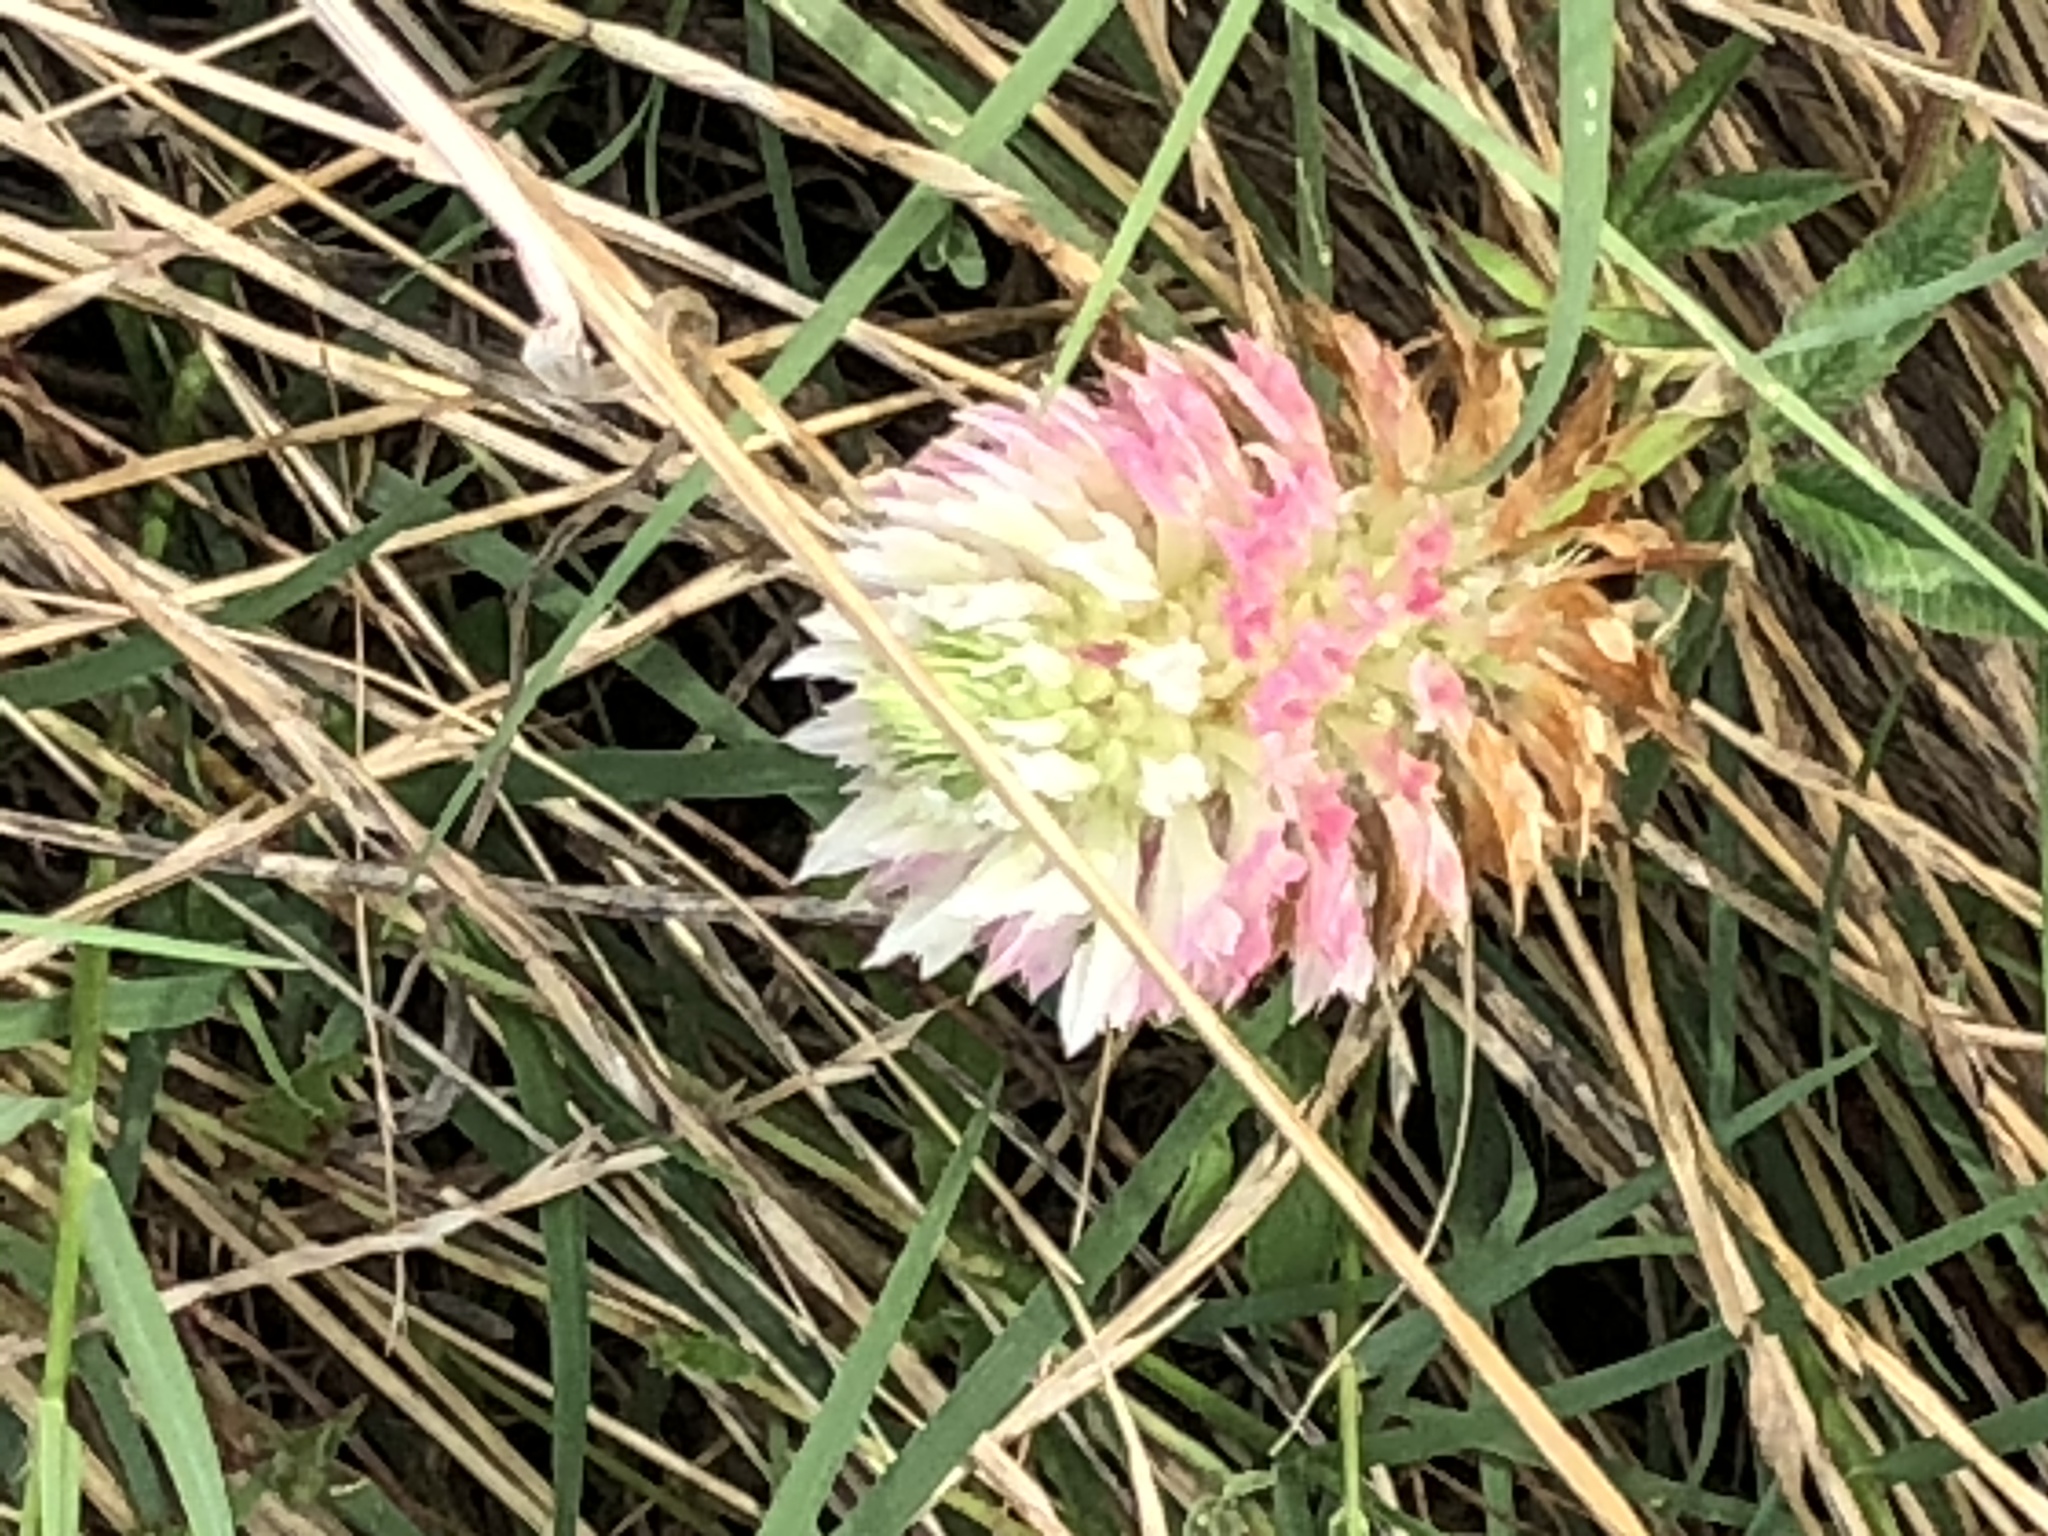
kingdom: Plantae
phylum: Tracheophyta
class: Magnoliopsida
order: Fabales
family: Fabaceae
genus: Trifolium
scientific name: Trifolium vesiculosum
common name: Arrowleaf clover
